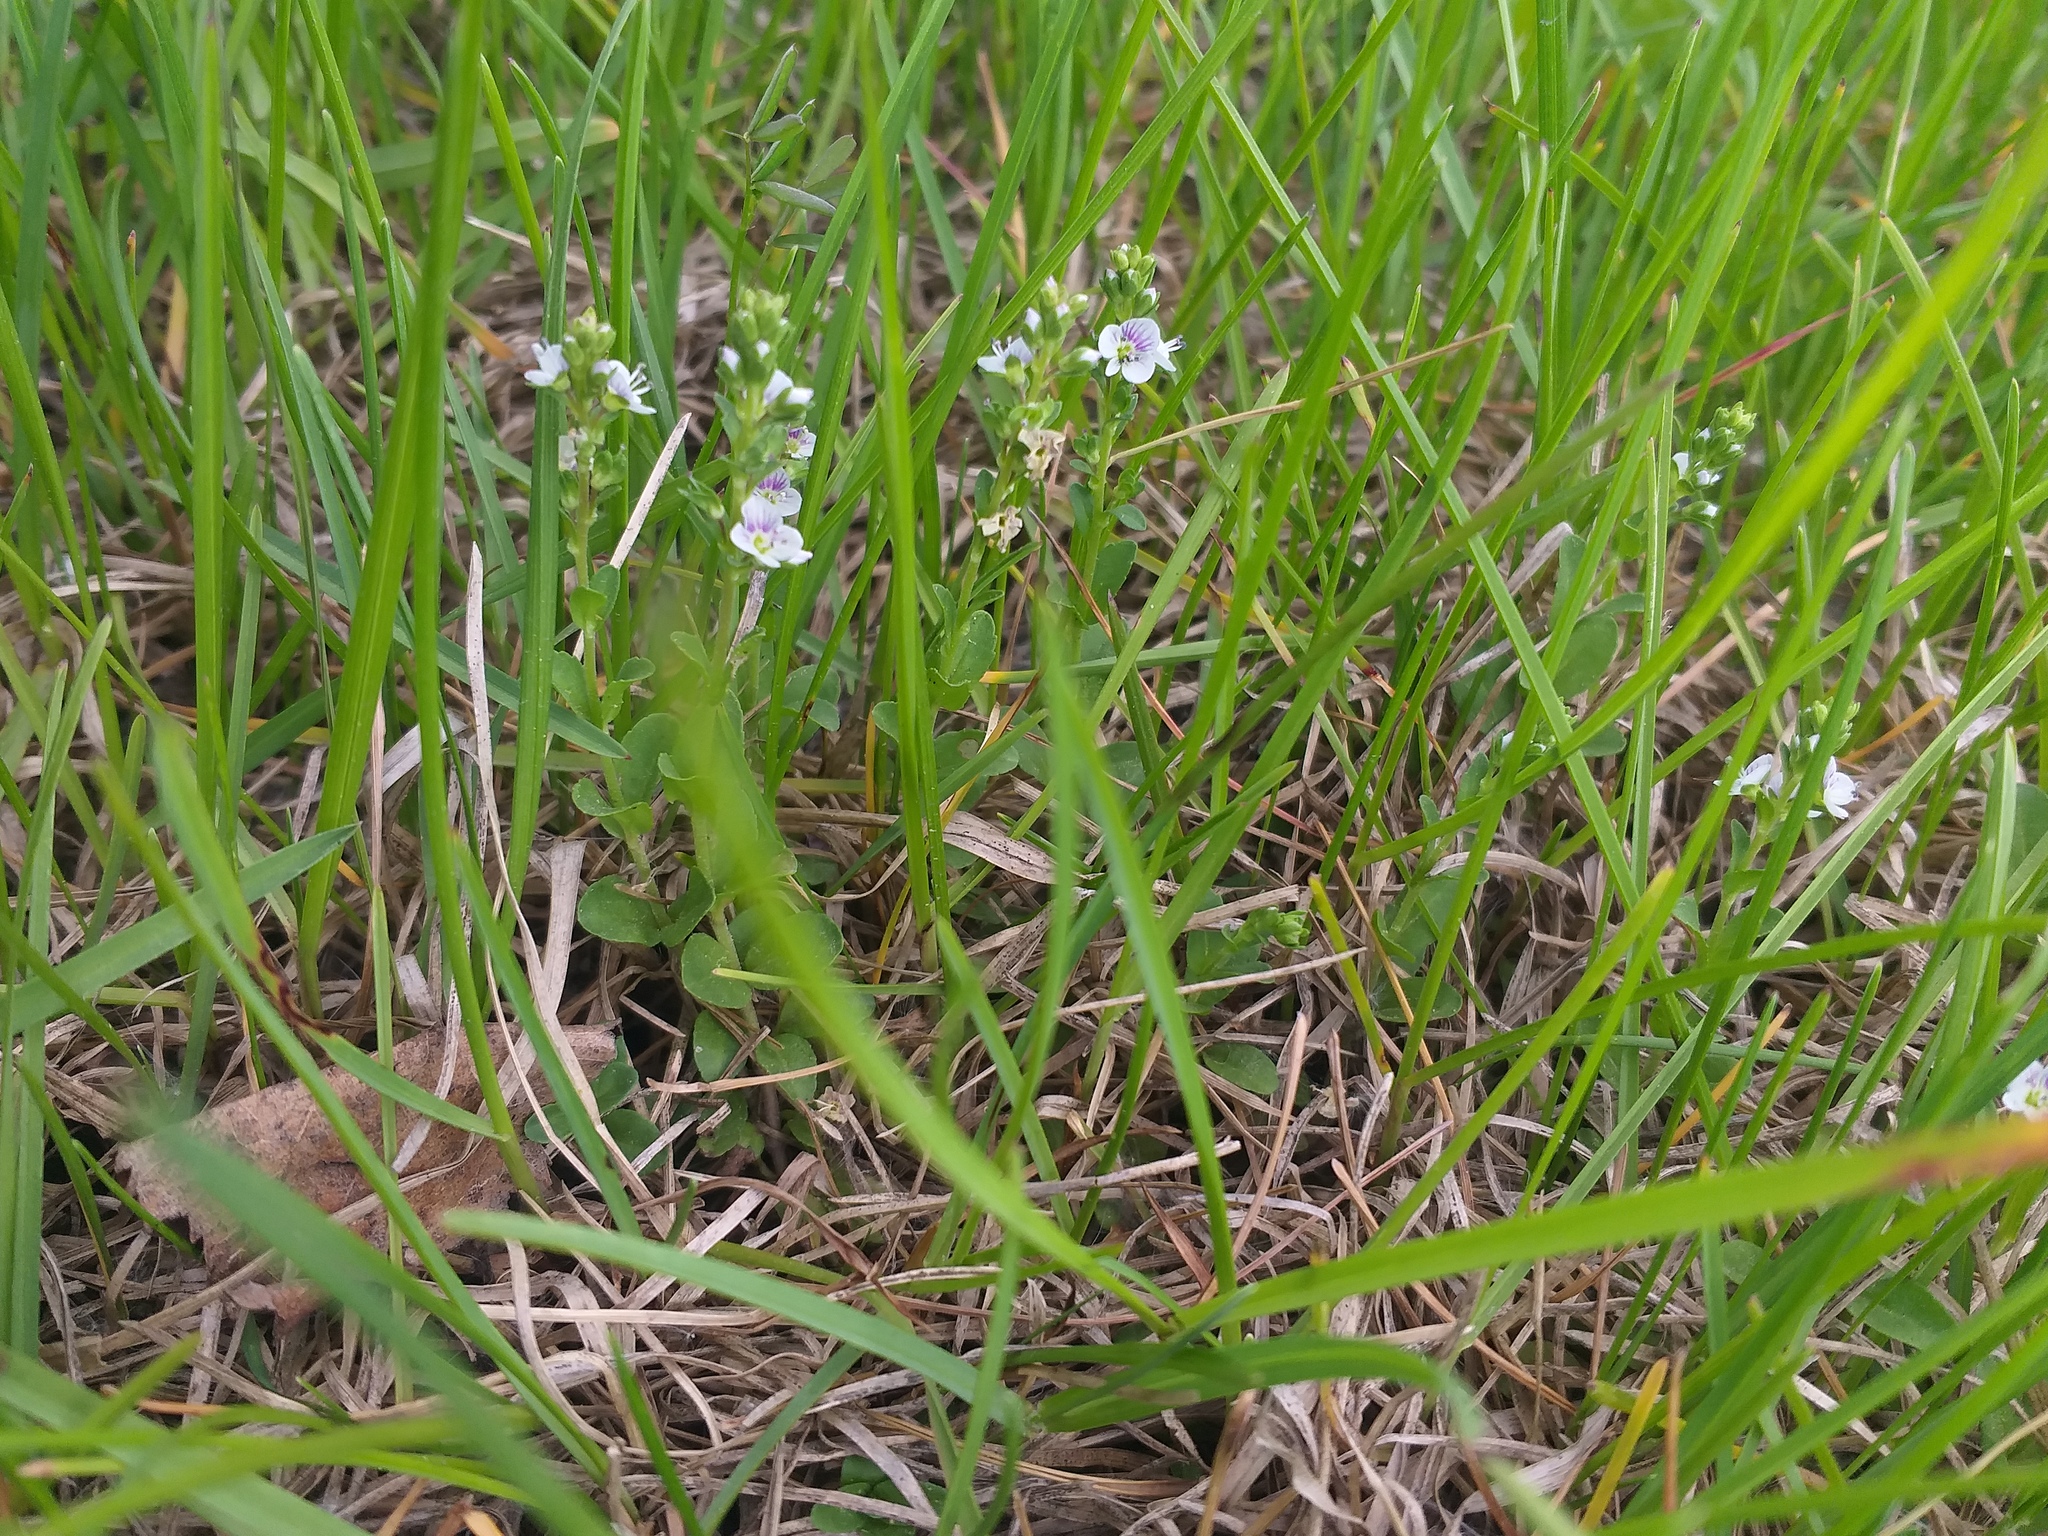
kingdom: Plantae
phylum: Tracheophyta
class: Magnoliopsida
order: Lamiales
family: Plantaginaceae
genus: Veronica
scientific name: Veronica serpyllifolia
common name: Thyme-leaved speedwell
